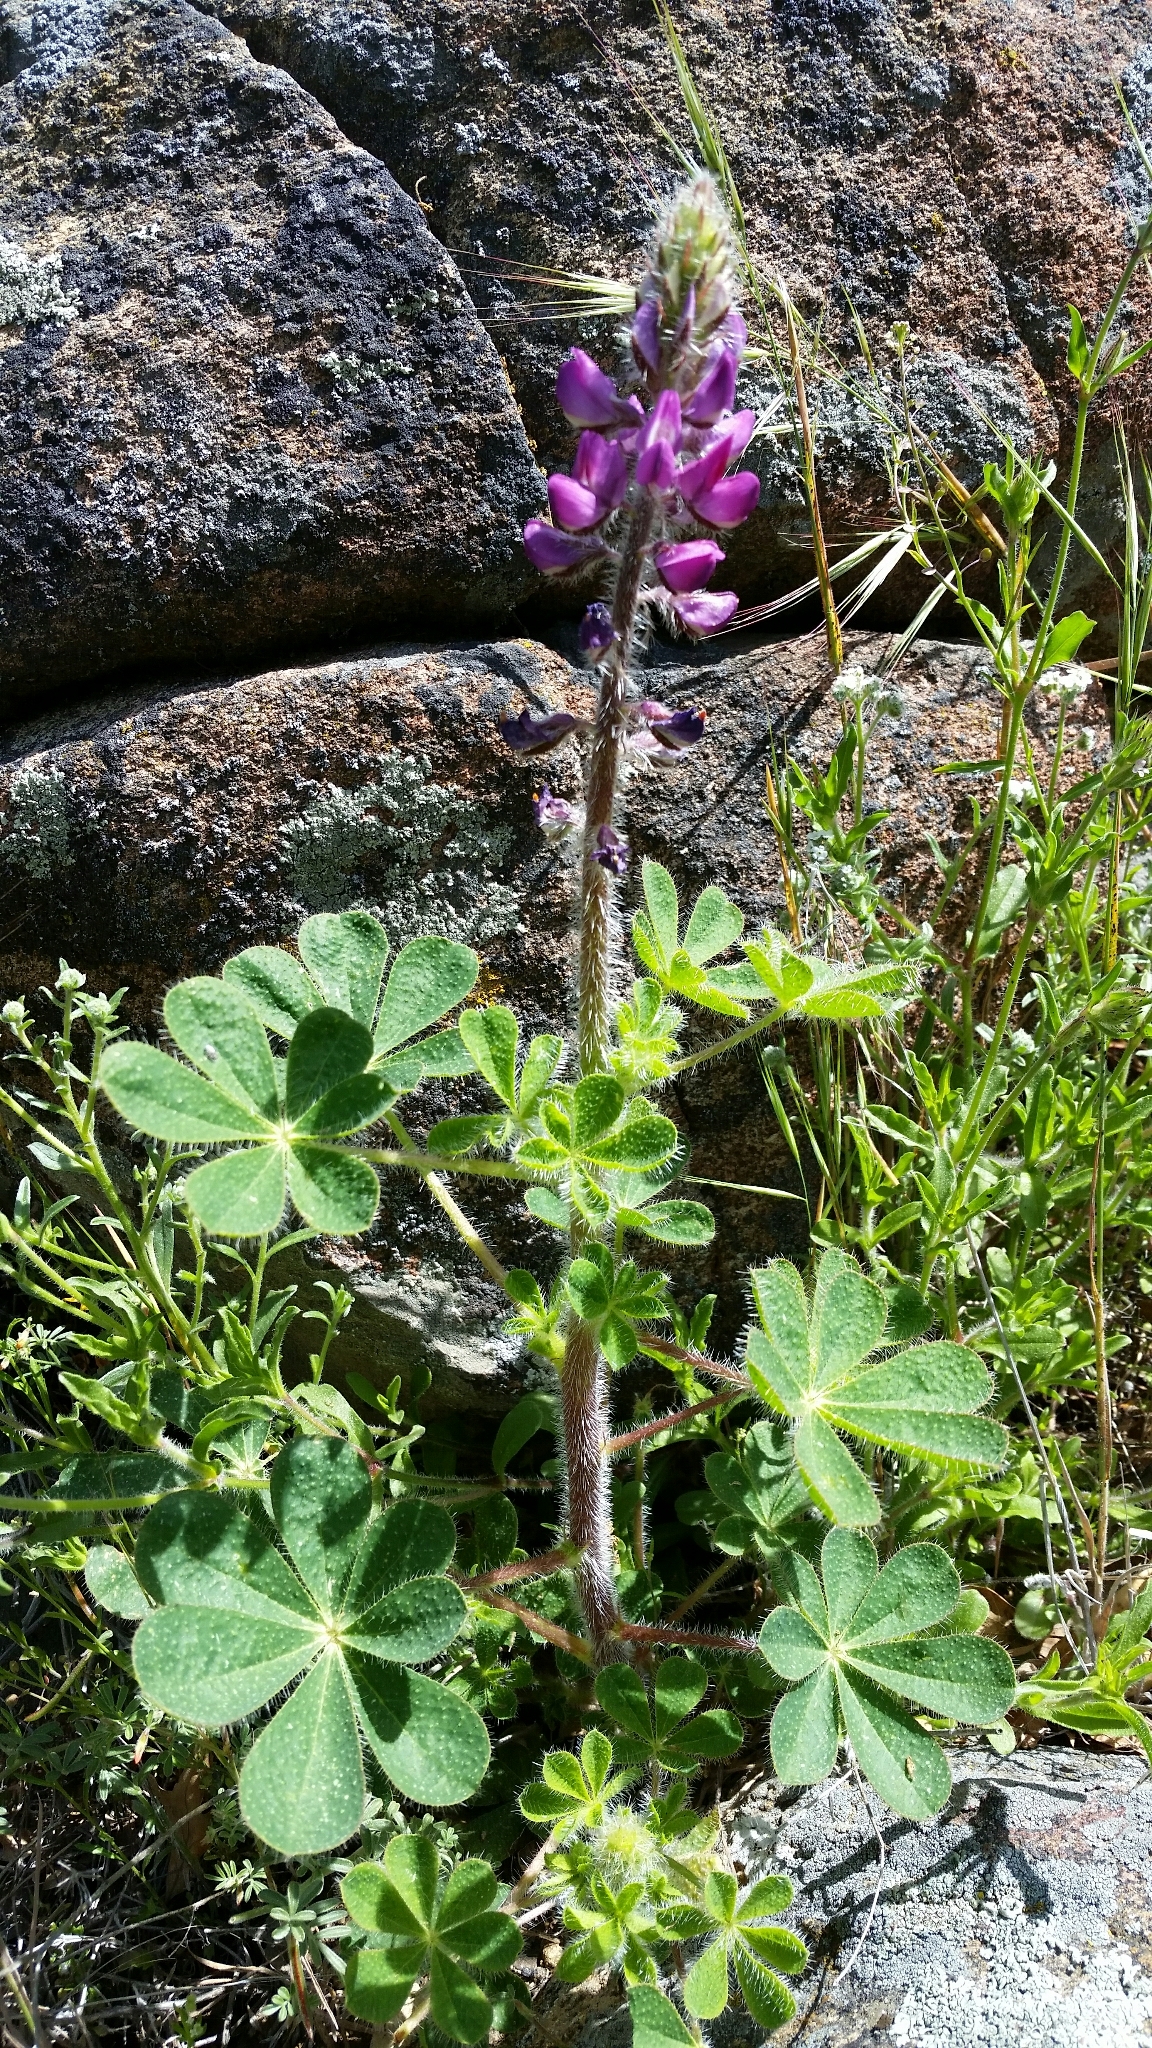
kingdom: Plantae
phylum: Tracheophyta
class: Magnoliopsida
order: Fabales
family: Fabaceae
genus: Lupinus
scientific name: Lupinus hirsutissimus
